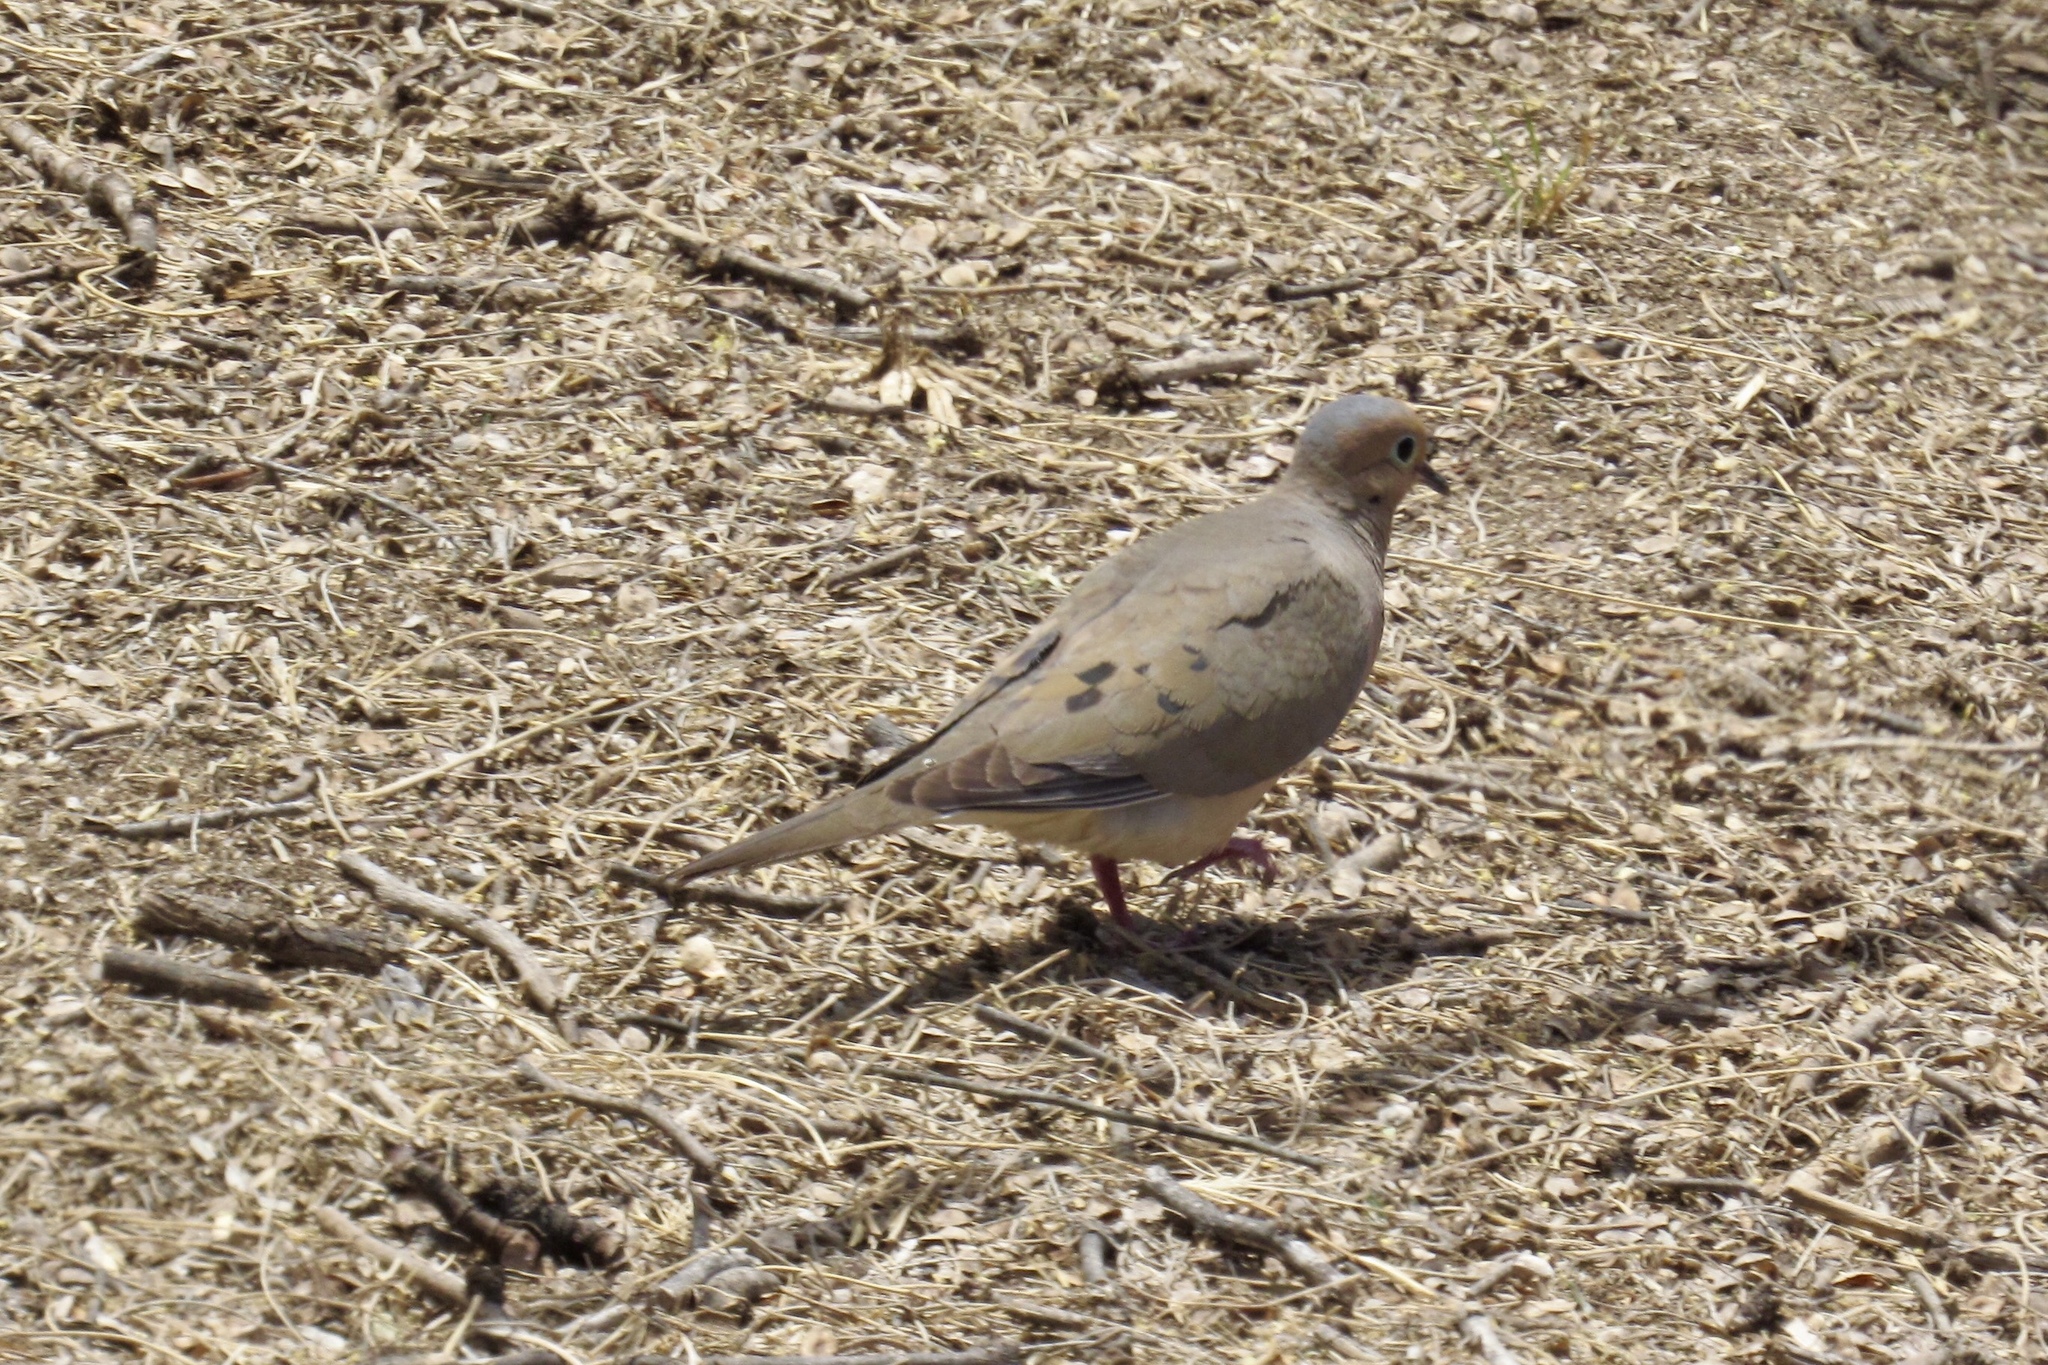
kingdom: Animalia
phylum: Chordata
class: Aves
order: Columbiformes
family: Columbidae
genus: Zenaida
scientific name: Zenaida macroura
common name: Mourning dove
